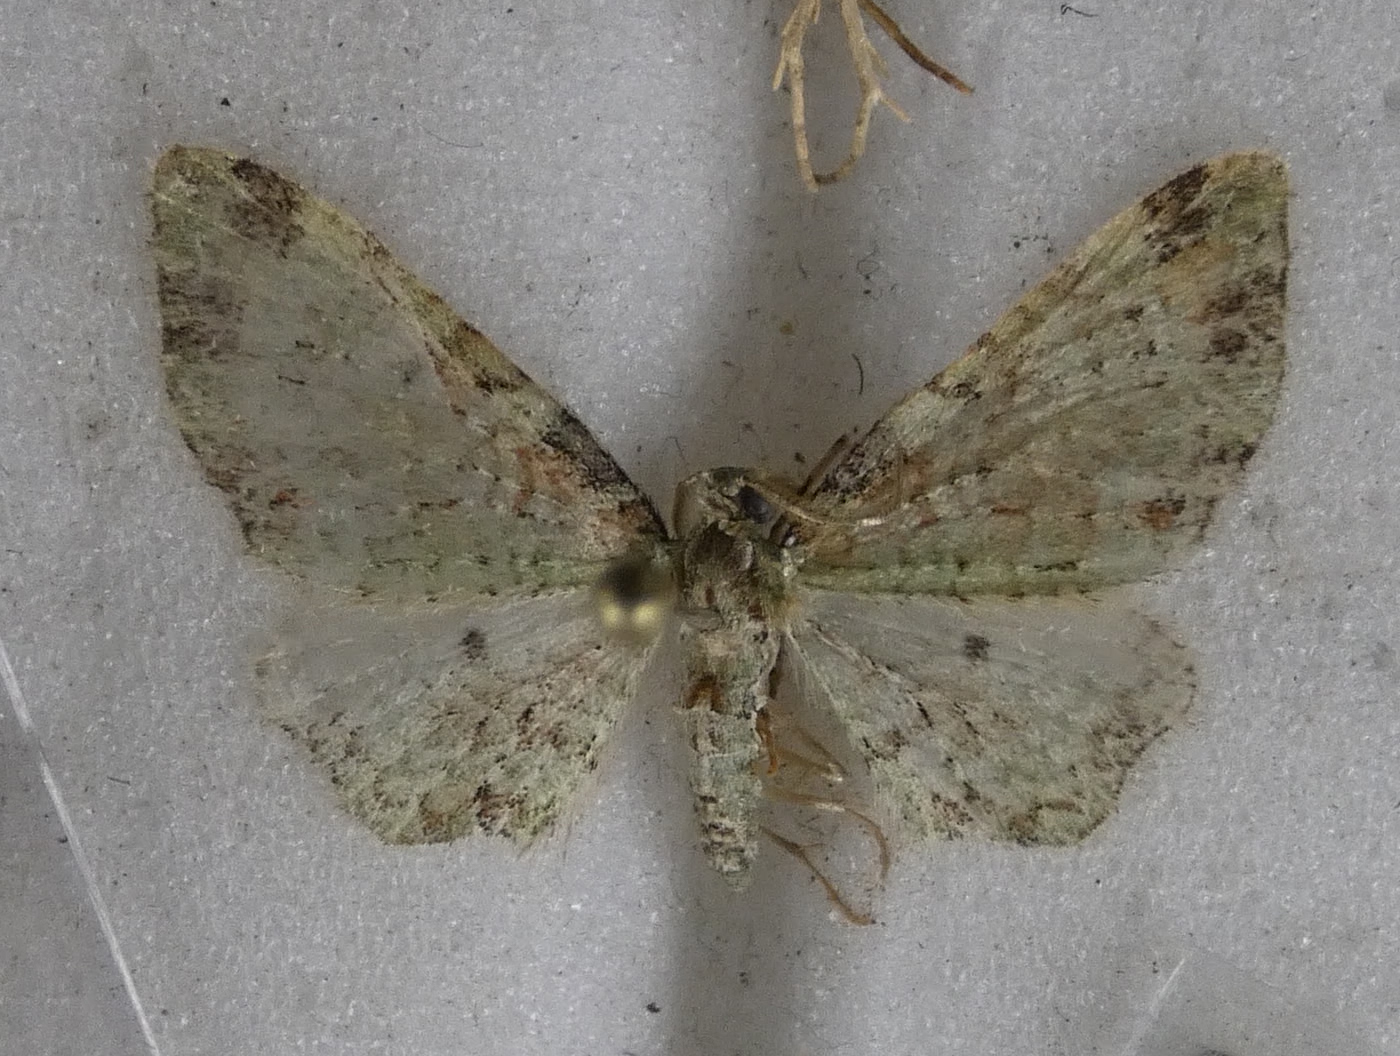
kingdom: Animalia
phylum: Arthropoda
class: Insecta
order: Lepidoptera
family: Geometridae
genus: Pasiphila
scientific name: Pasiphila plinthina
